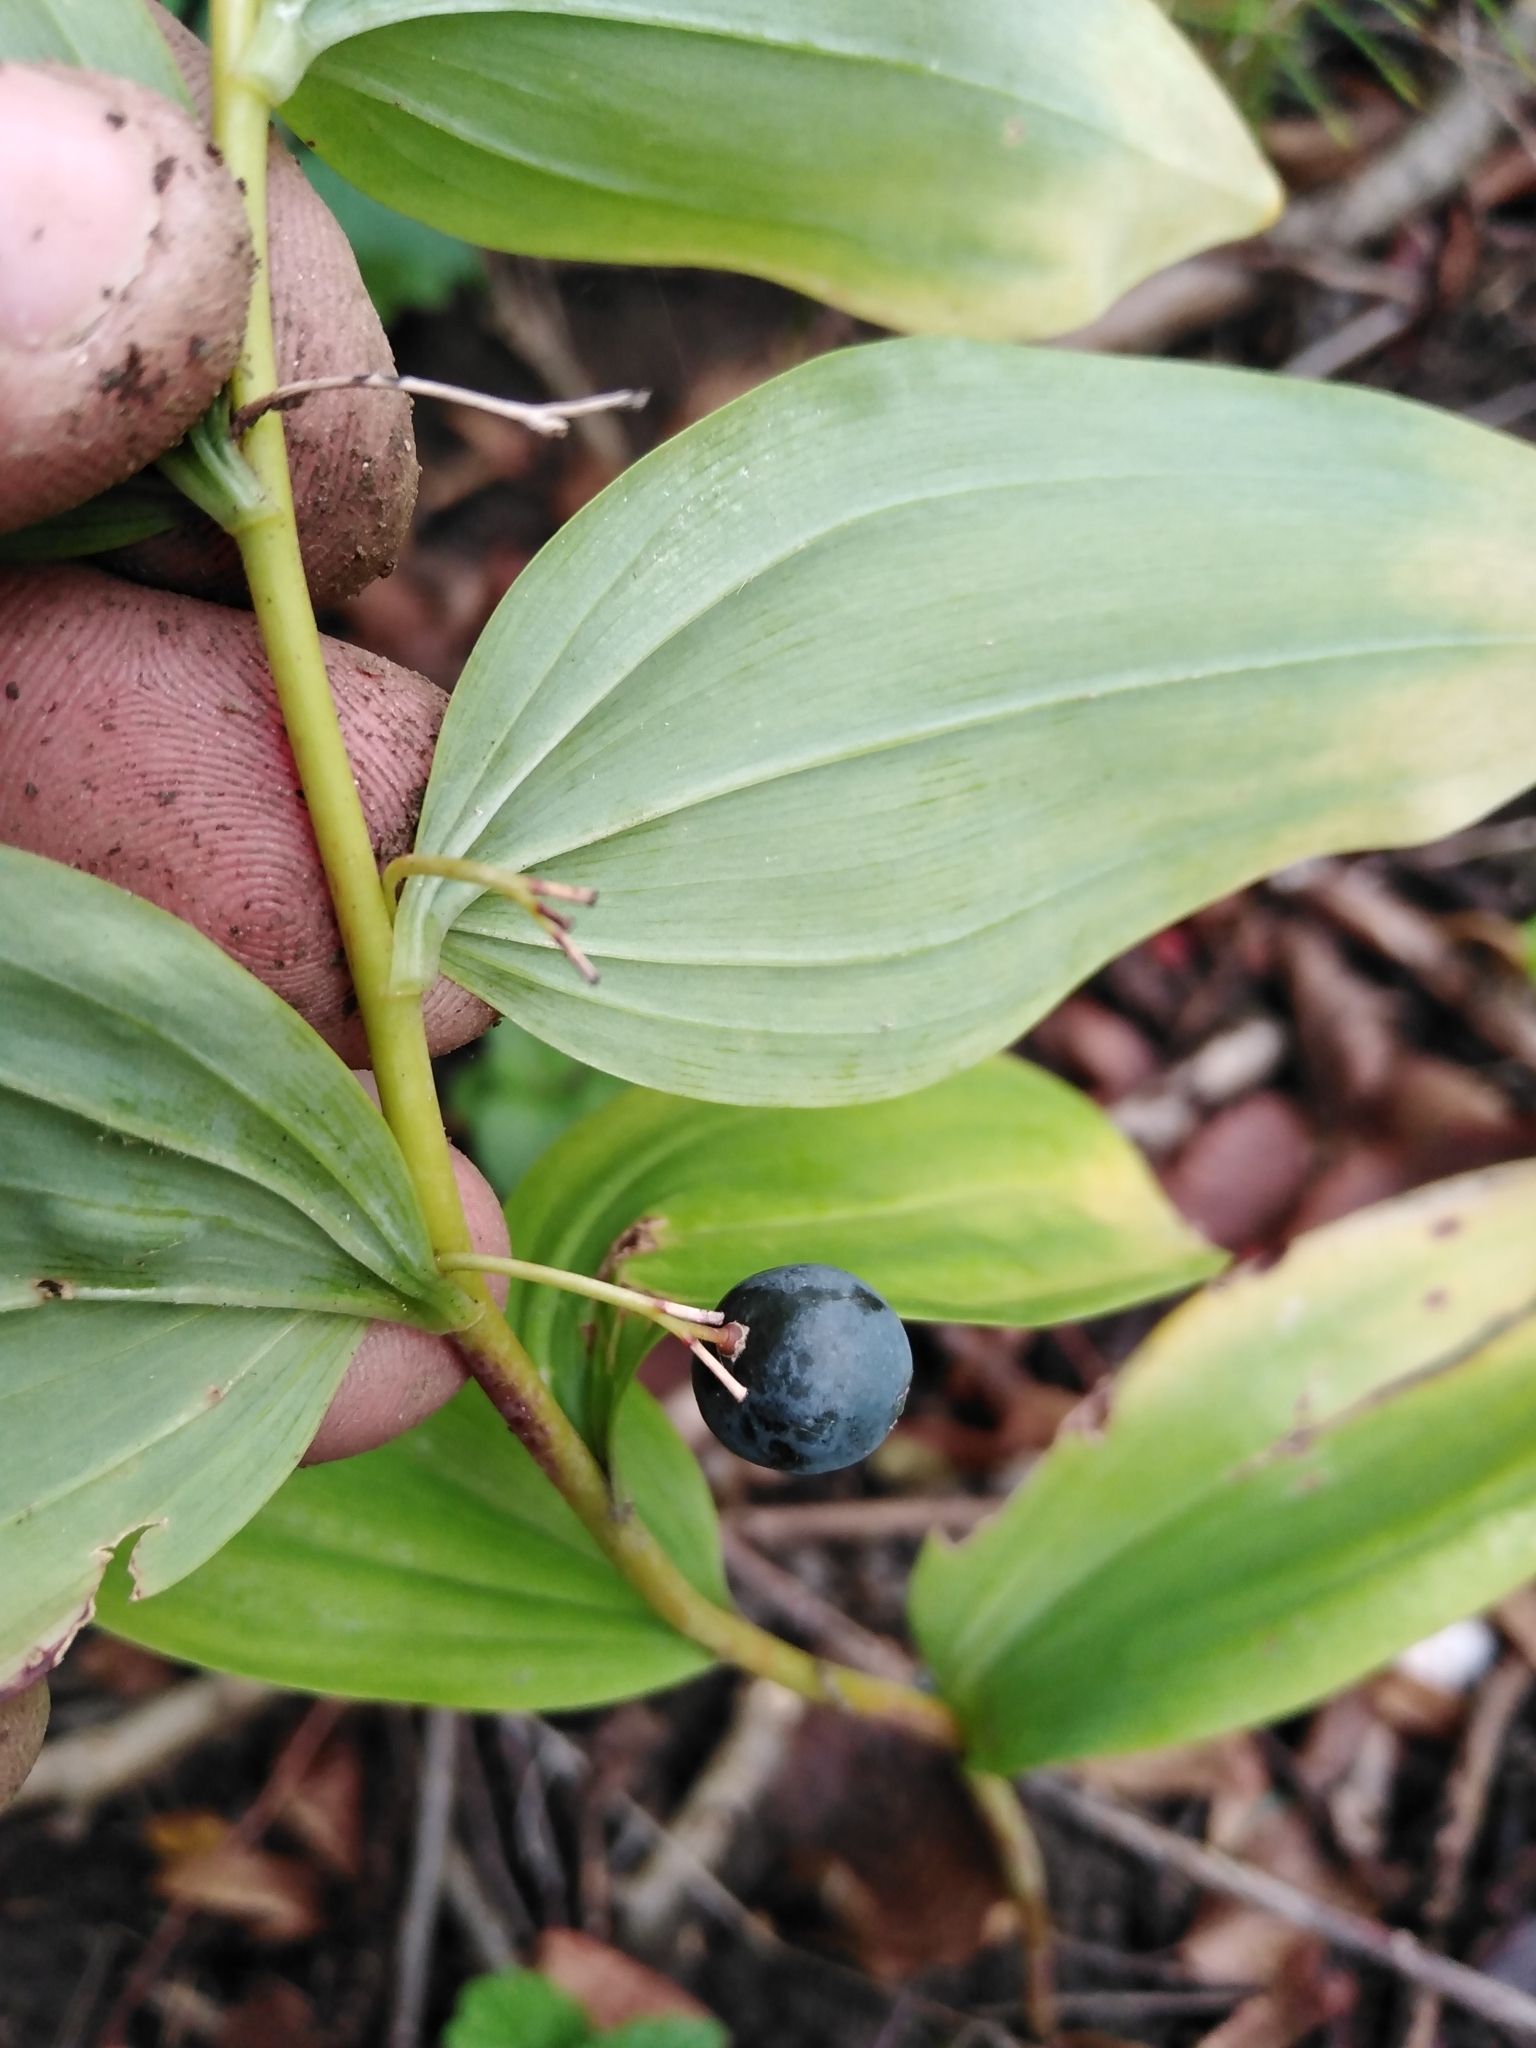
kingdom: Plantae
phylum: Tracheophyta
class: Liliopsida
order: Asparagales
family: Asparagaceae
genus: Polygonatum
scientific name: Polygonatum multiflorum
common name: Solomon's-seal
